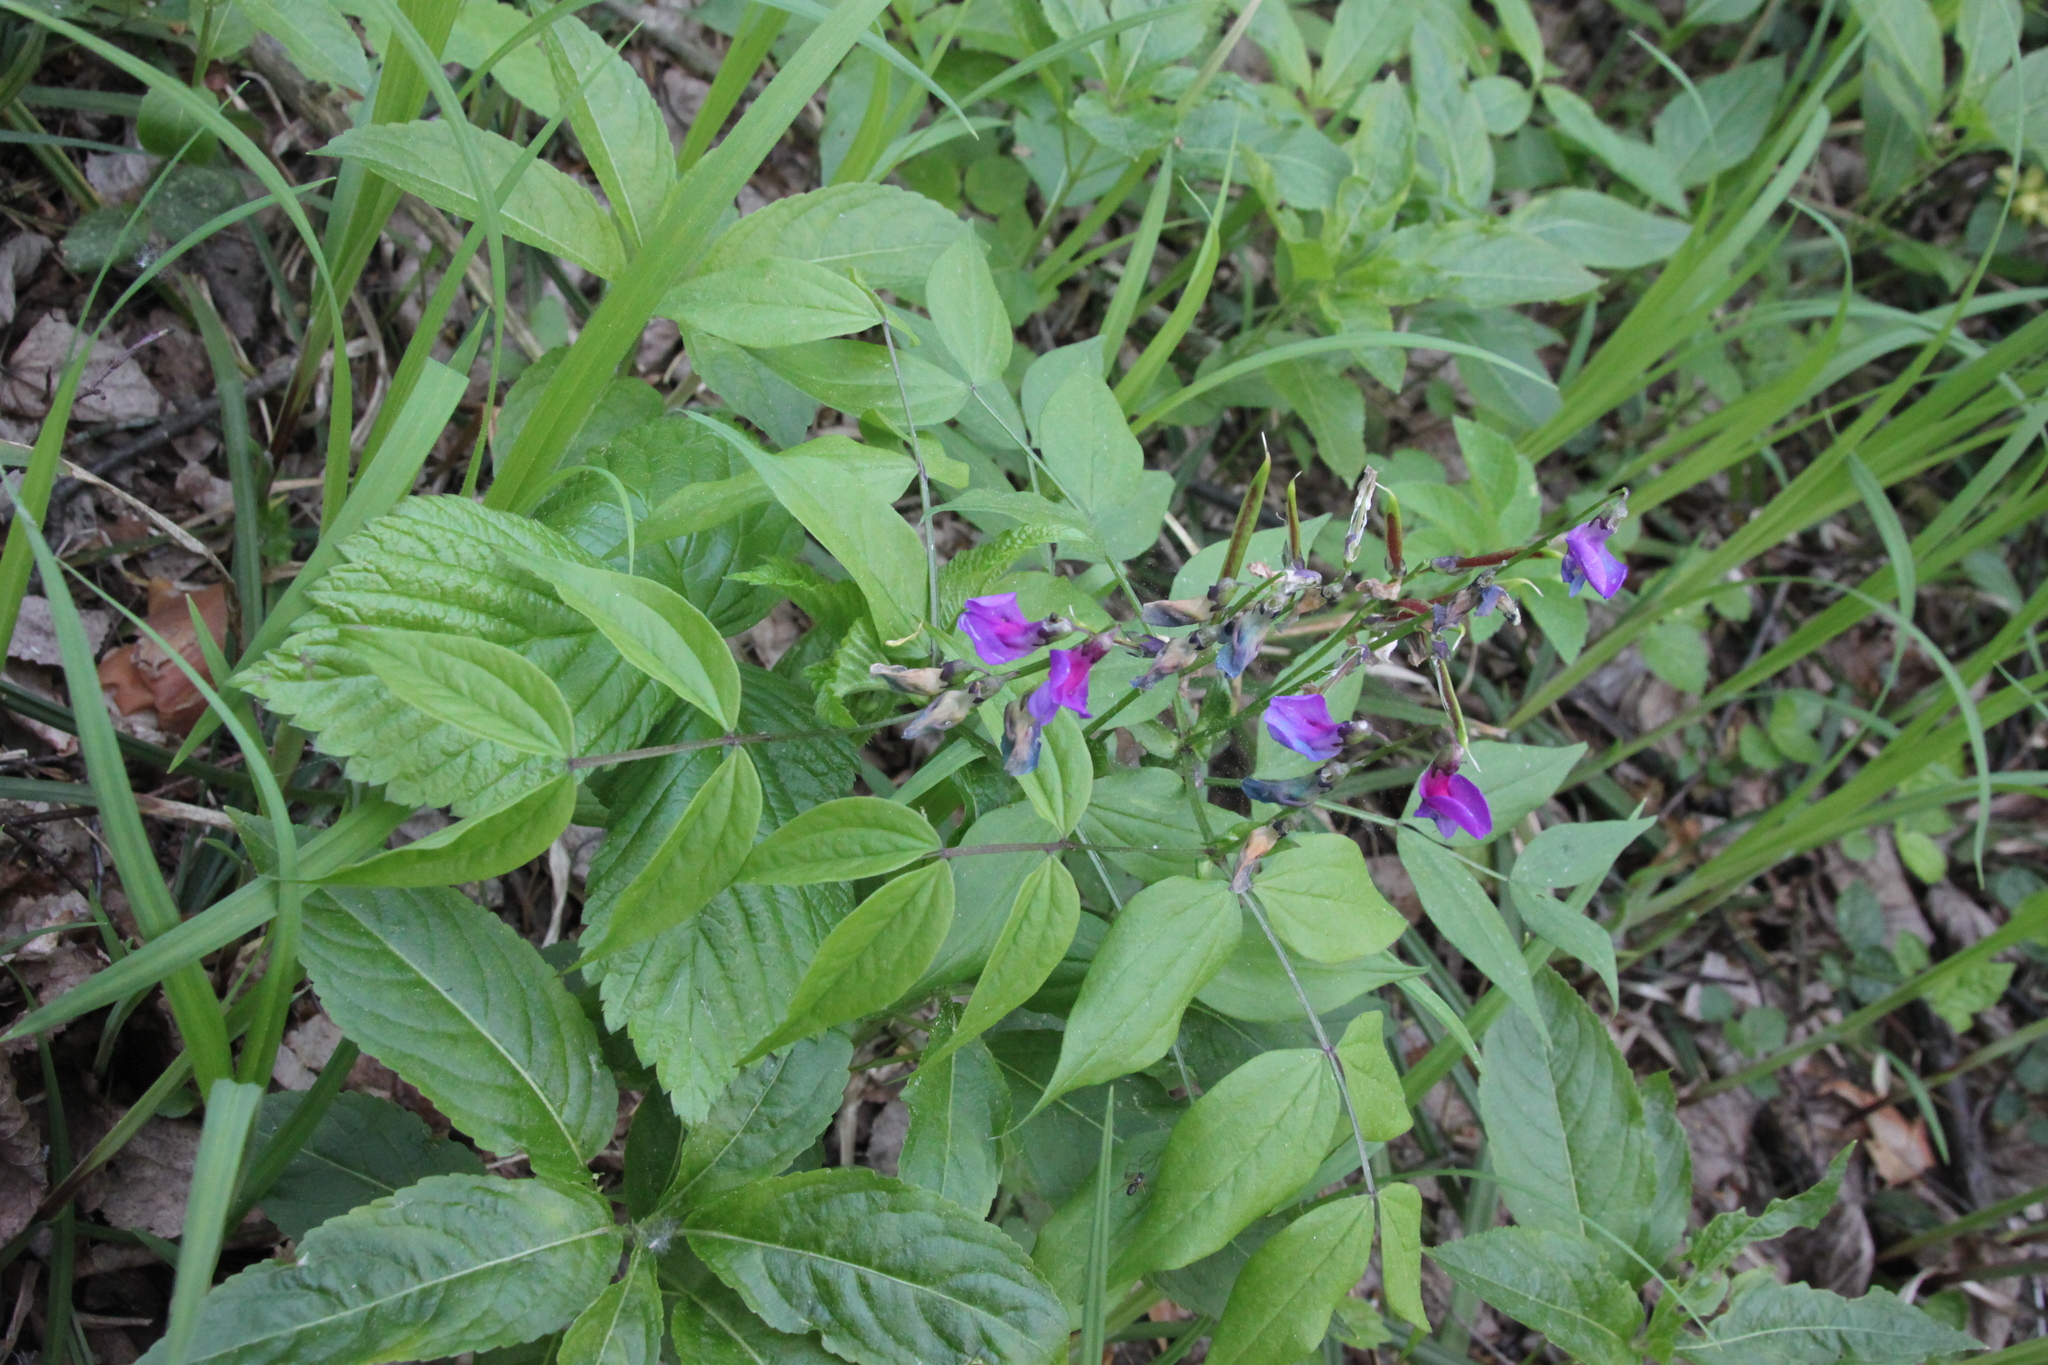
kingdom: Plantae
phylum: Tracheophyta
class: Magnoliopsida
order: Fabales
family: Fabaceae
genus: Lathyrus
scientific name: Lathyrus vernus
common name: Spring pea
